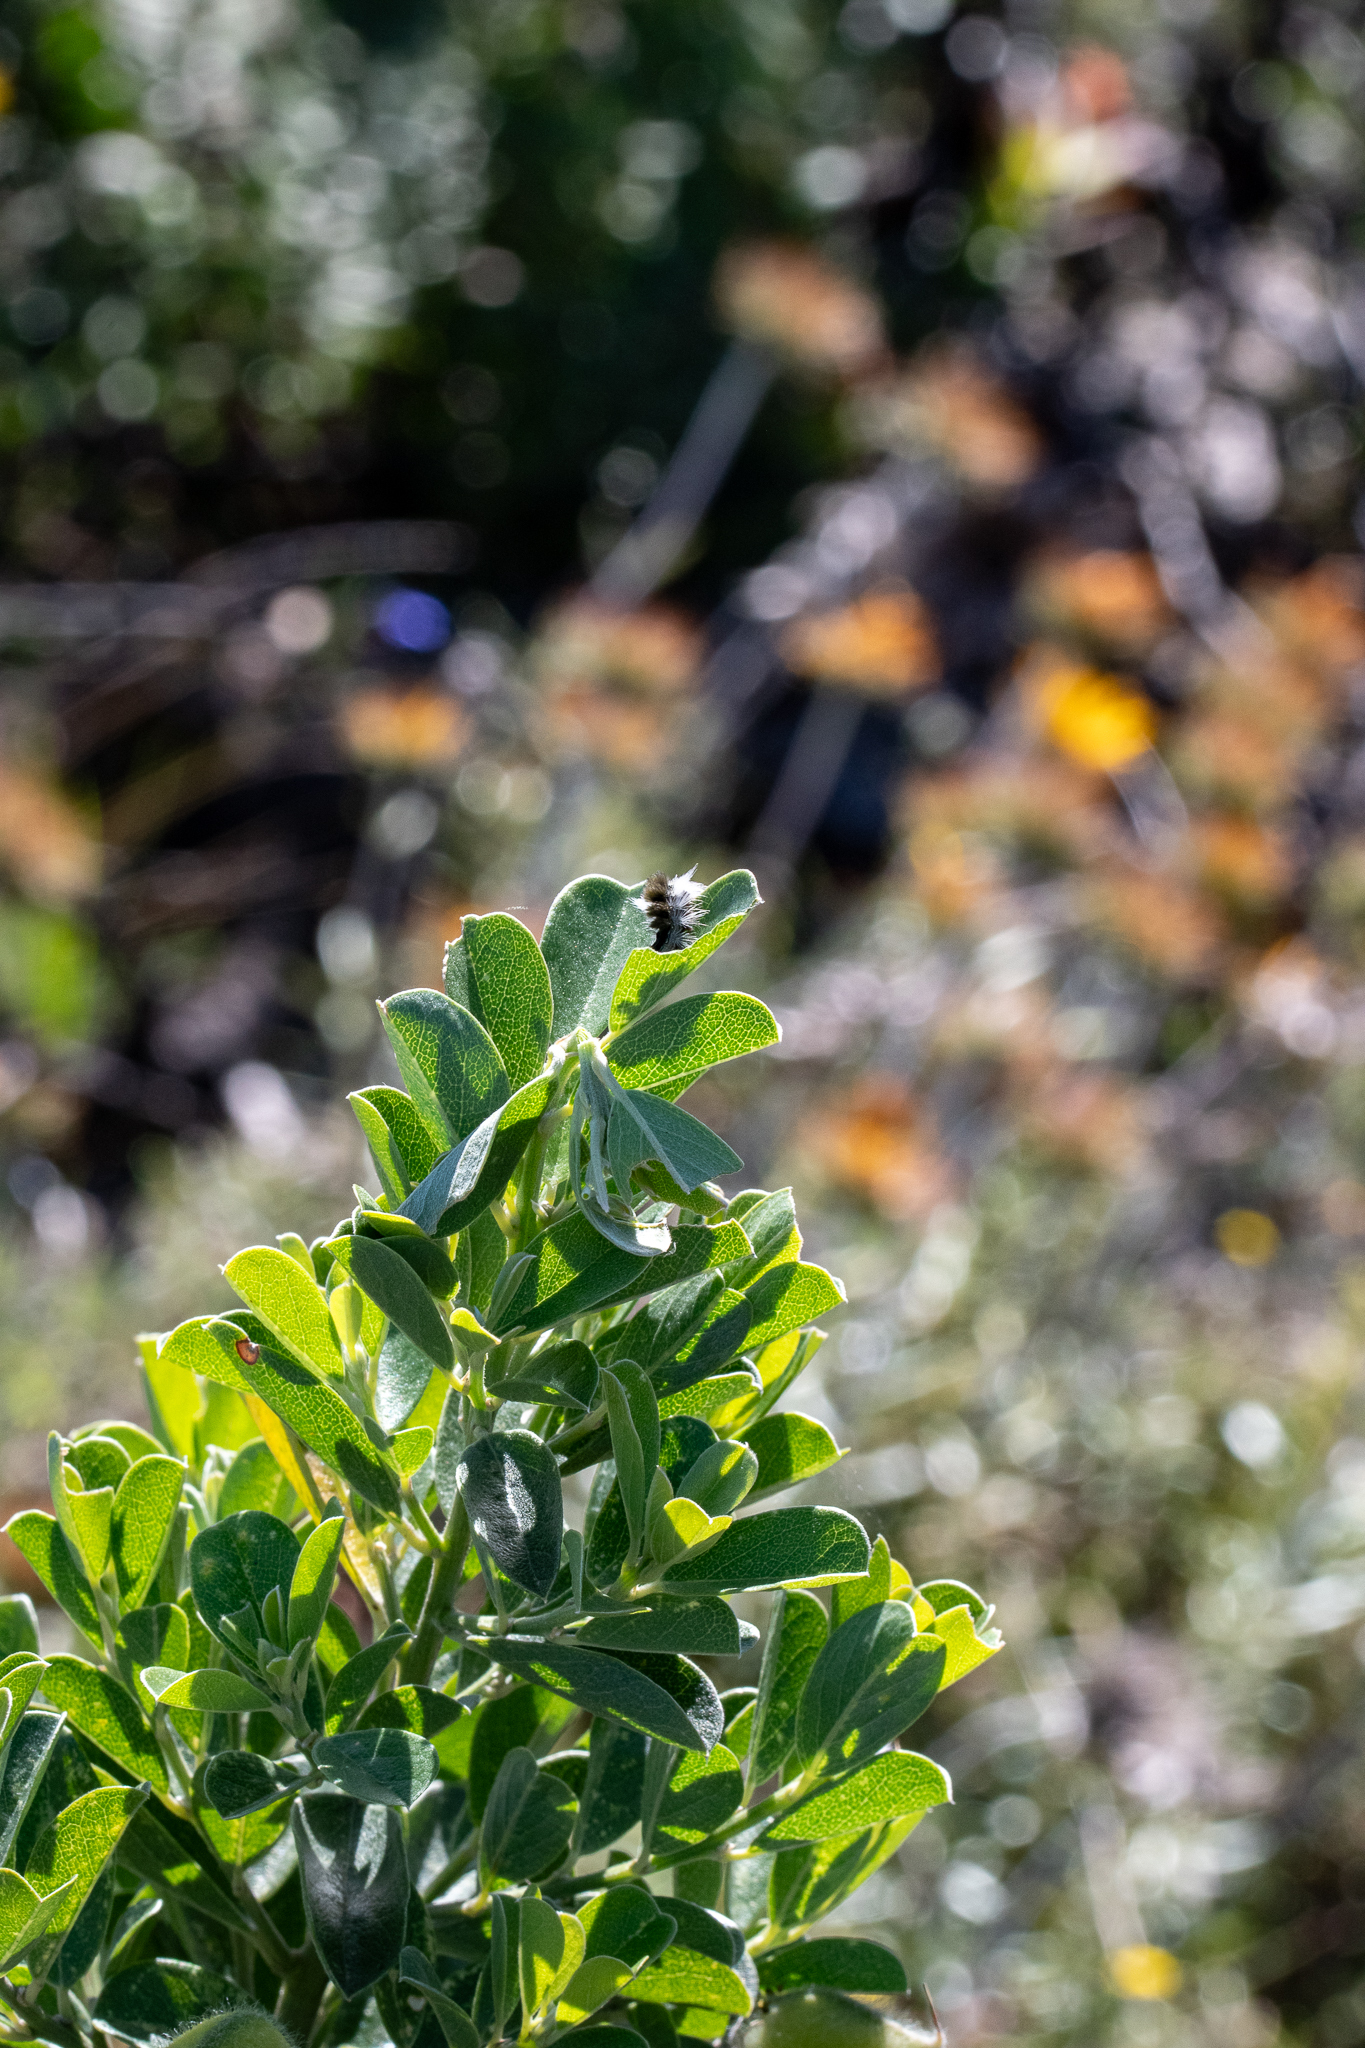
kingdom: Plantae
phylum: Tracheophyta
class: Magnoliopsida
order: Fabales
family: Fabaceae
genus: Podalyria
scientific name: Podalyria calyptrata
